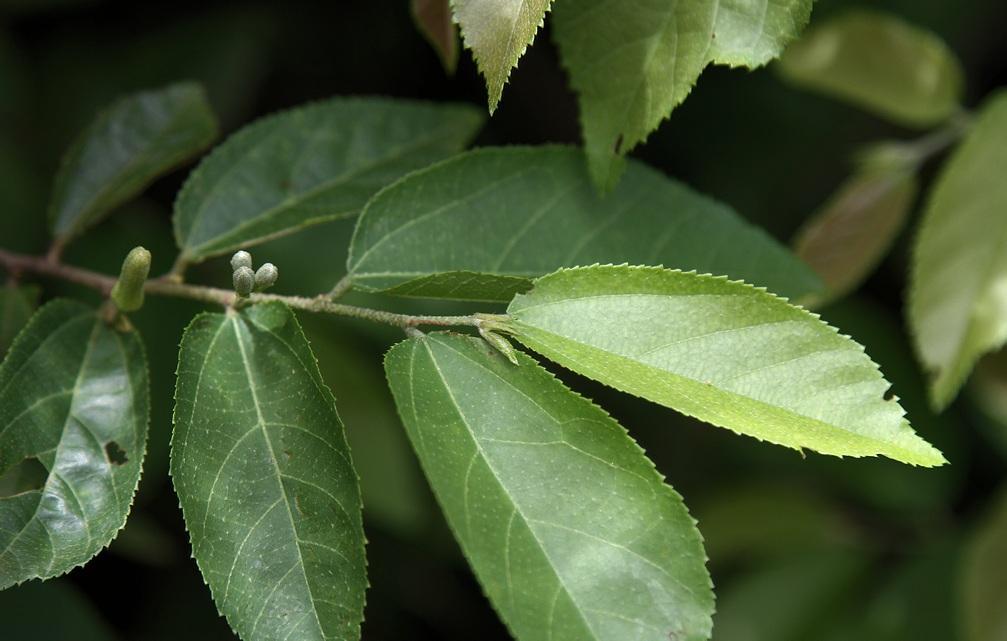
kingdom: Plantae
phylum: Tracheophyta
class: Magnoliopsida
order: Malvales
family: Malvaceae
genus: Grewia
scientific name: Grewia flavescens
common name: Sandpaper raisin
